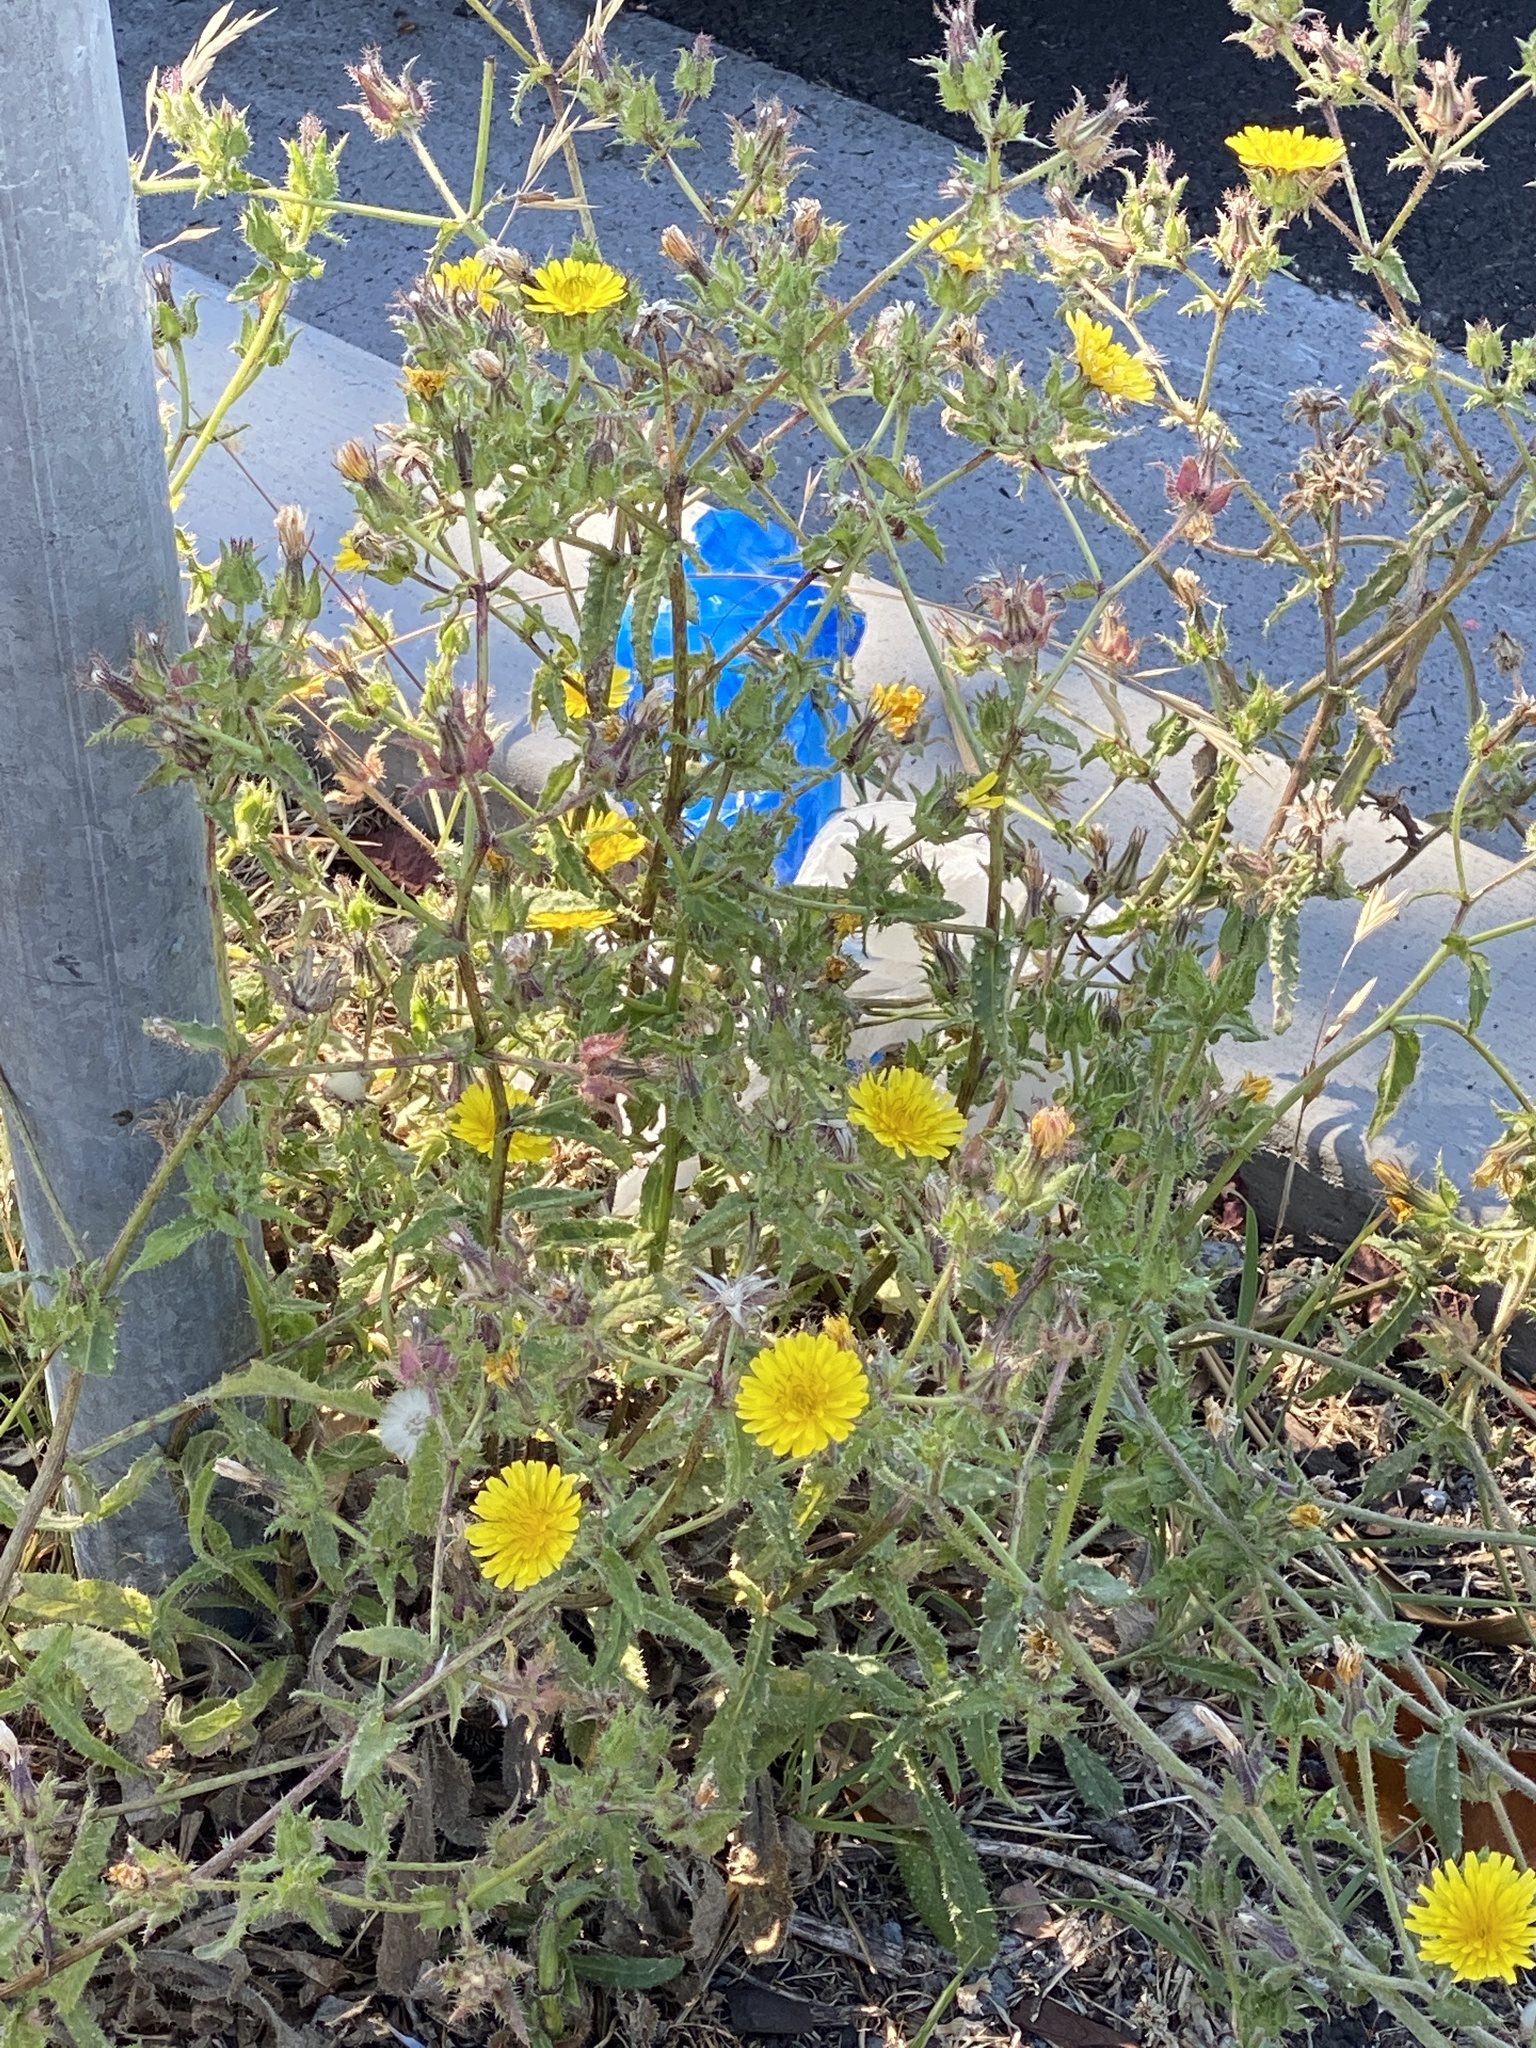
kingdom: Plantae
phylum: Tracheophyta
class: Magnoliopsida
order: Asterales
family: Asteraceae
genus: Helminthotheca
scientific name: Helminthotheca echioides
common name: Ox-tongue
